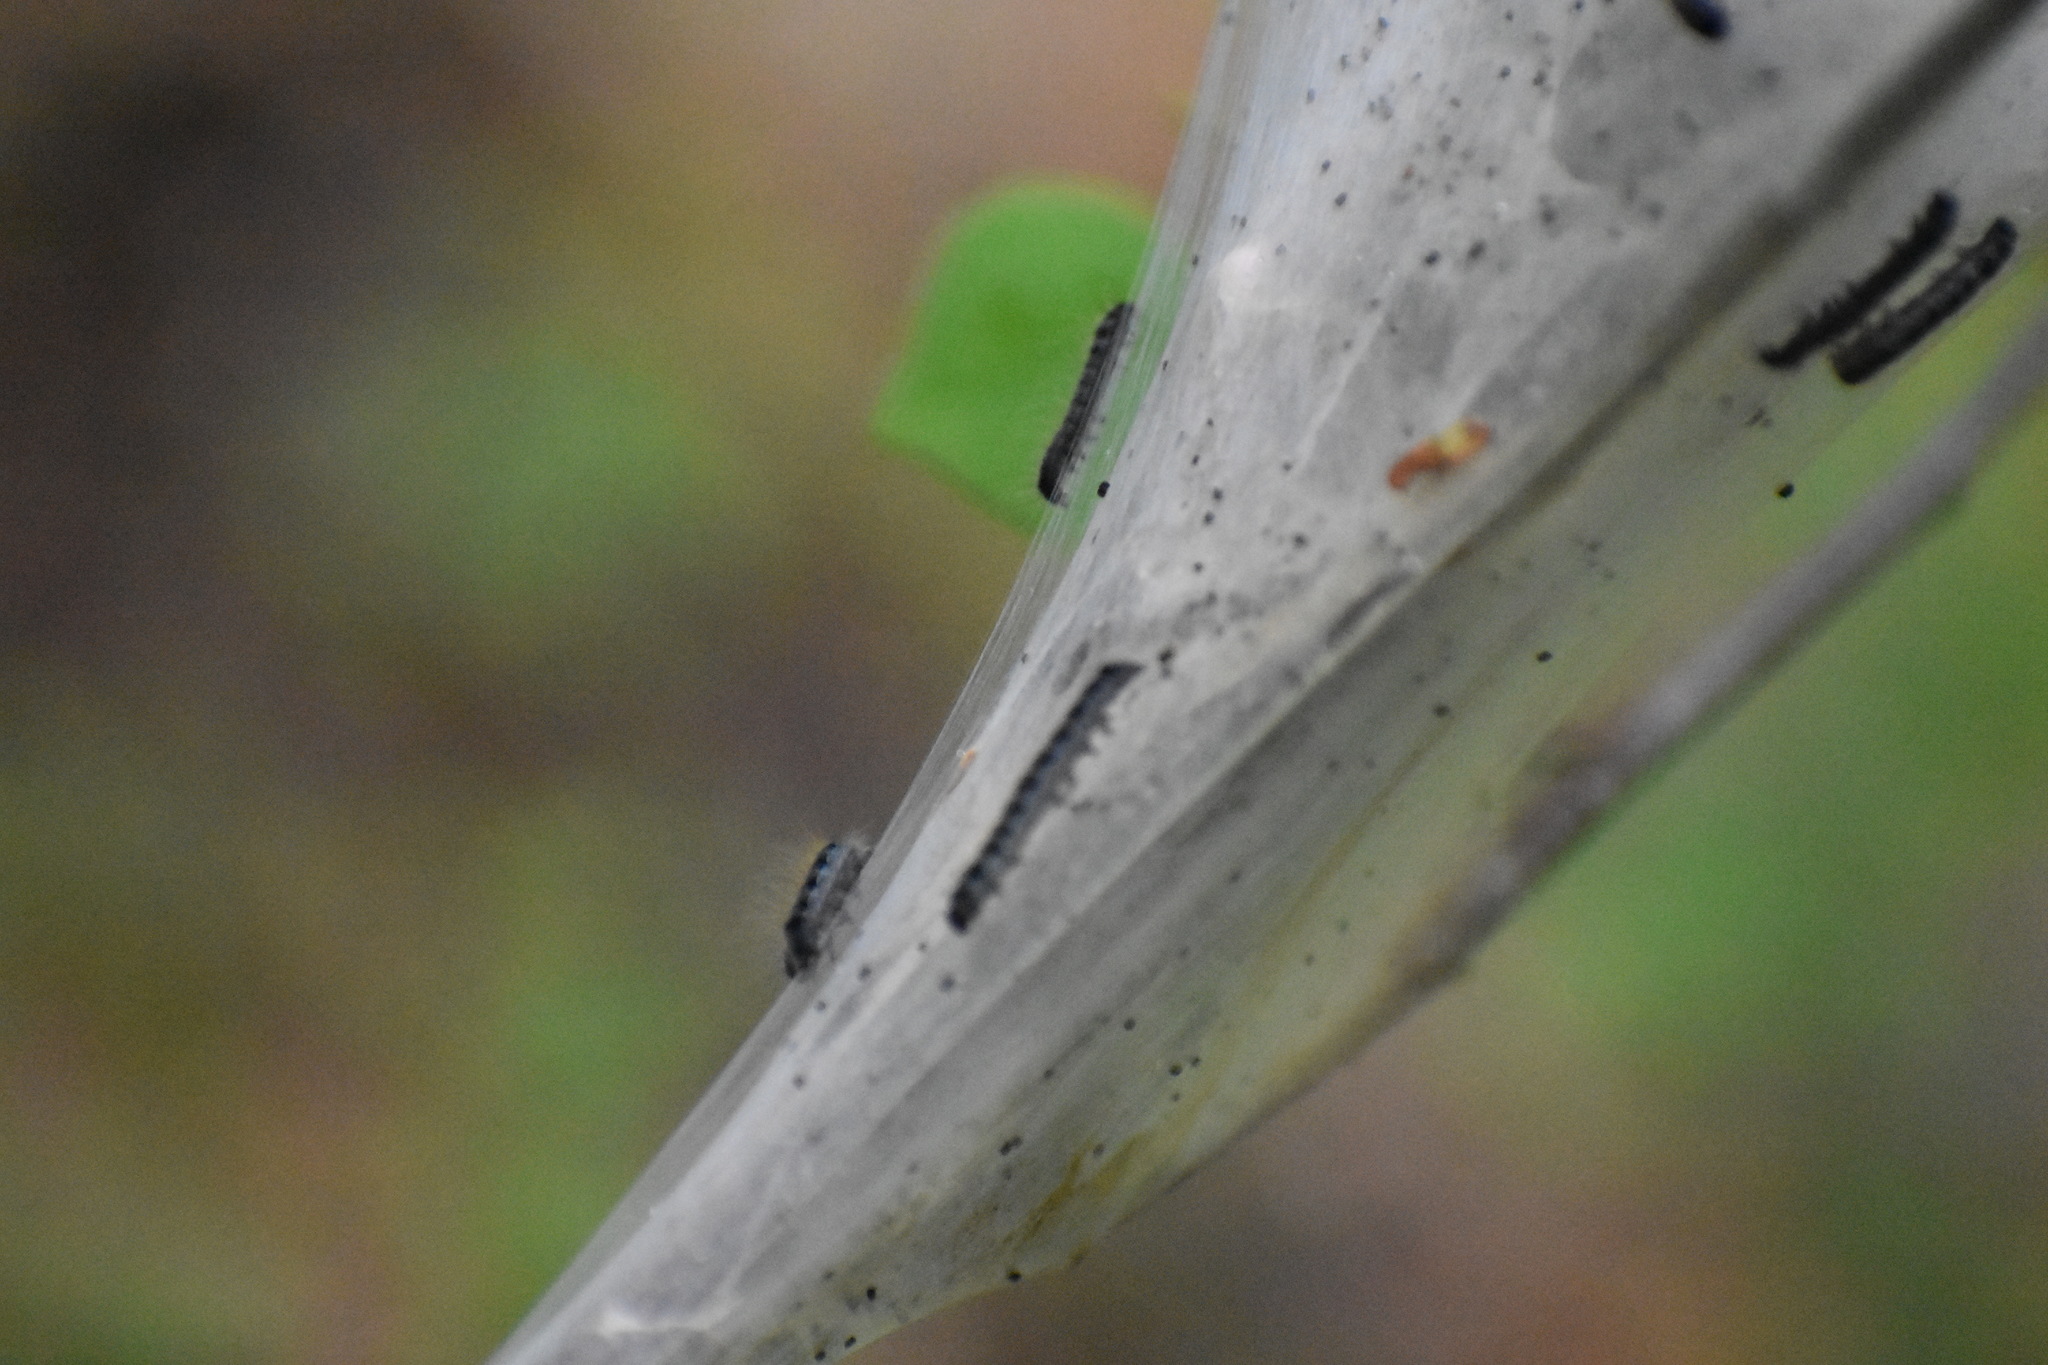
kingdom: Animalia
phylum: Arthropoda
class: Insecta
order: Lepidoptera
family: Lasiocampidae
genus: Malacosoma
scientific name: Malacosoma americana
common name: Eastern tent caterpillar moth
